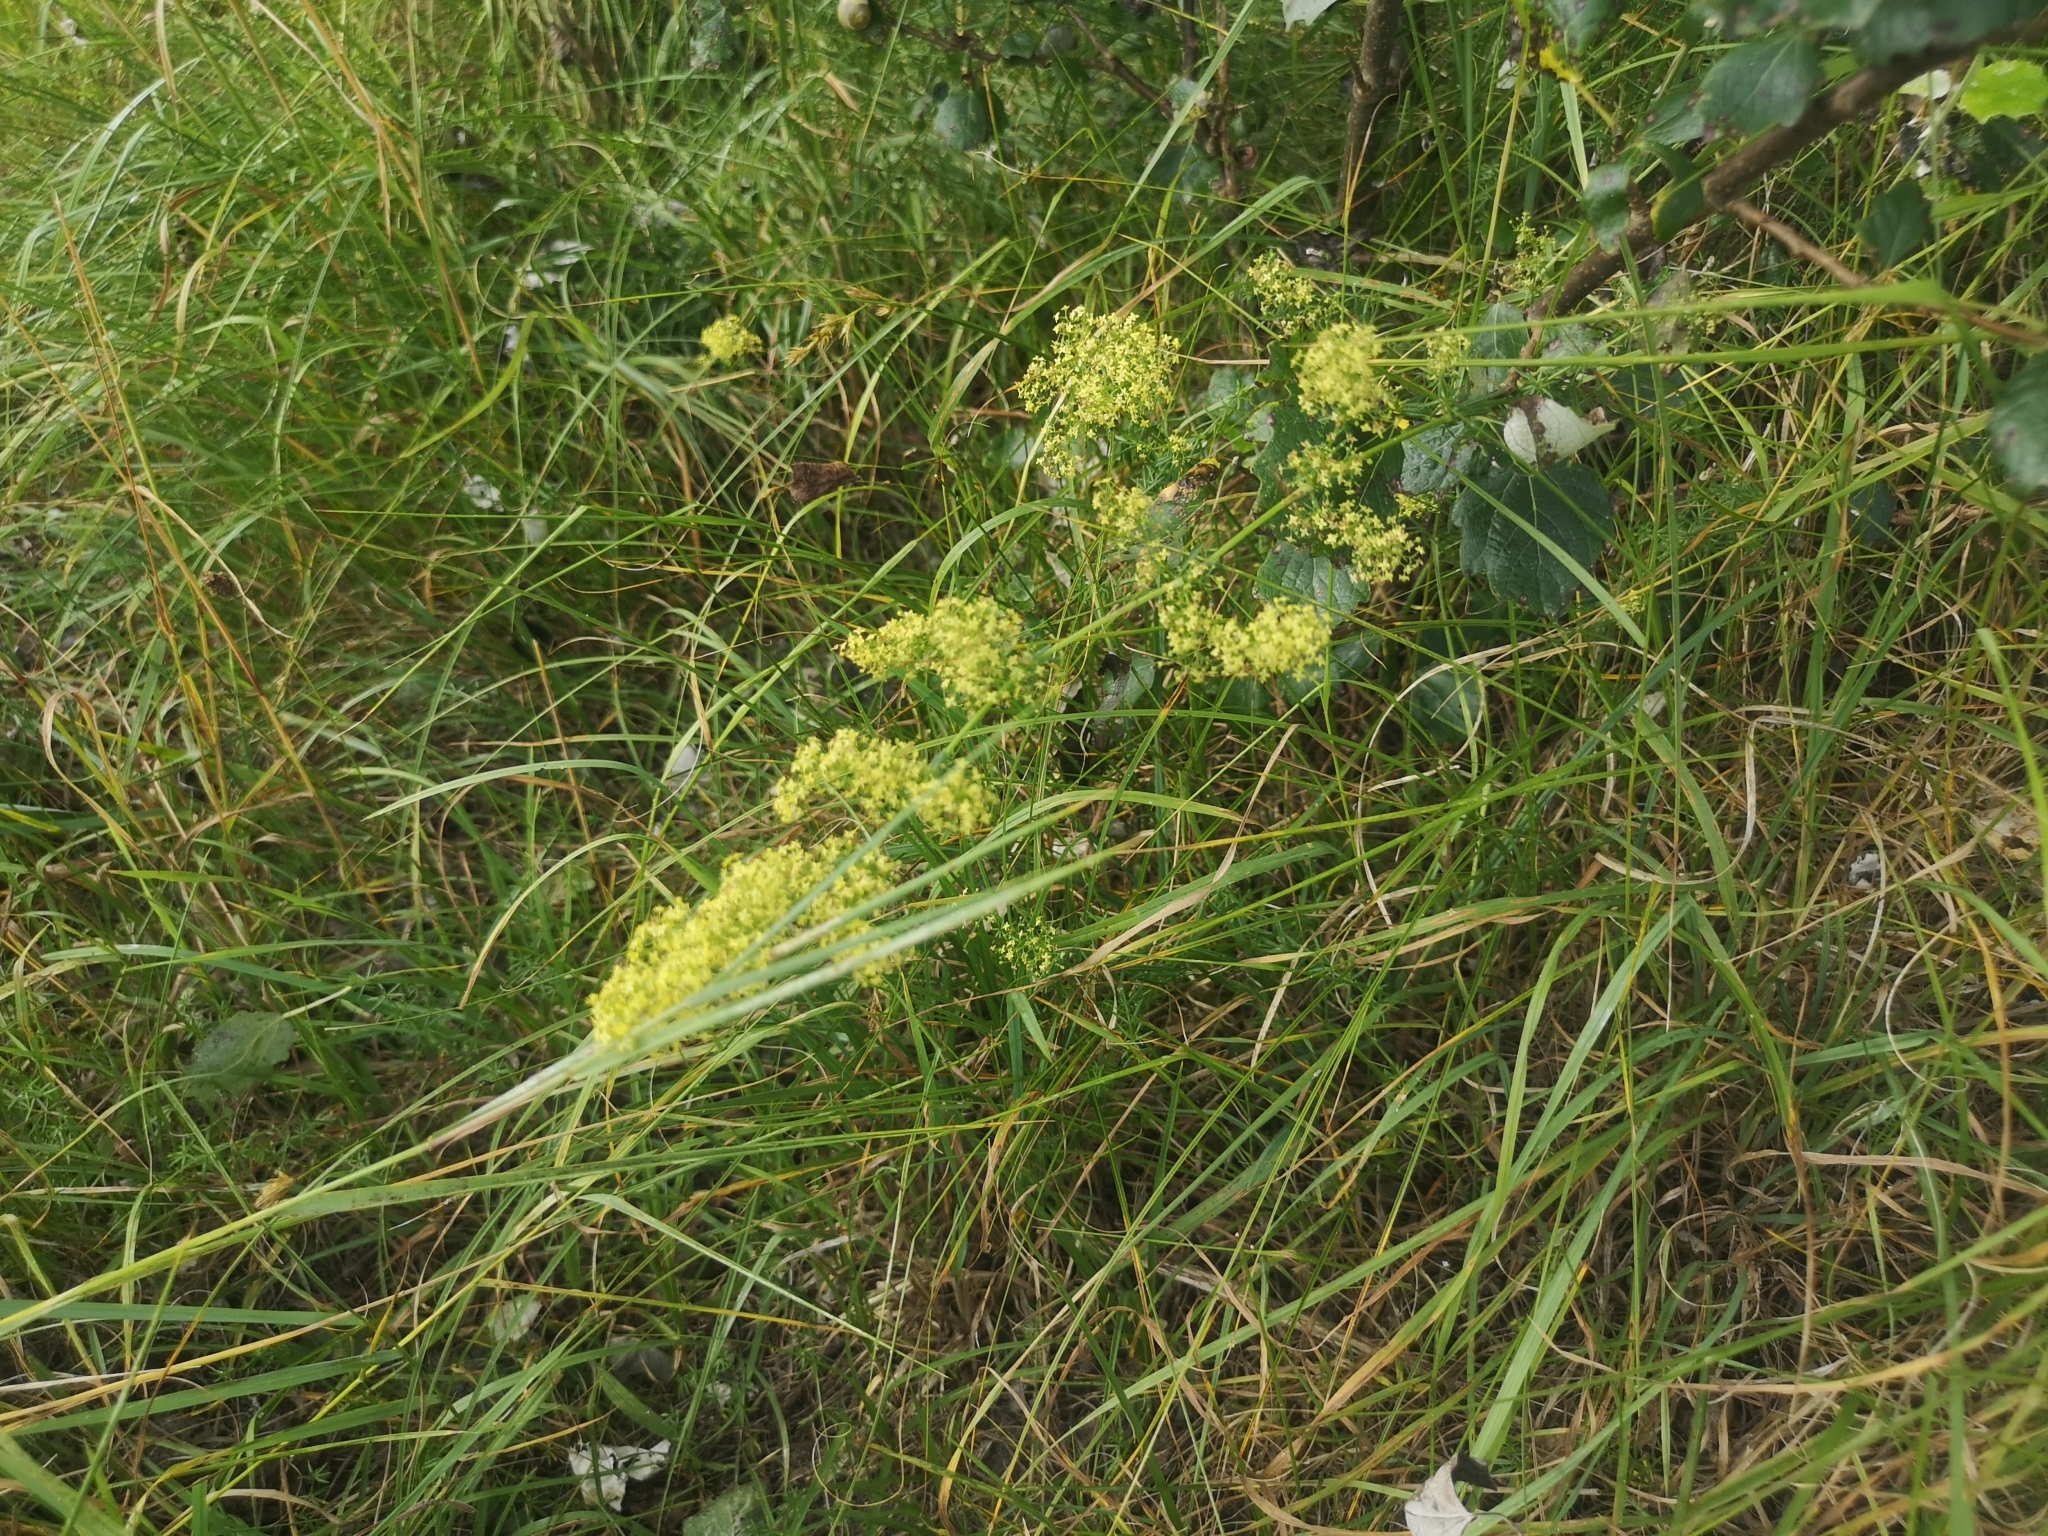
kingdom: Plantae
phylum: Tracheophyta
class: Magnoliopsida
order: Gentianales
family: Rubiaceae
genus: Galium
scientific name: Galium verum
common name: Lady's bedstraw
